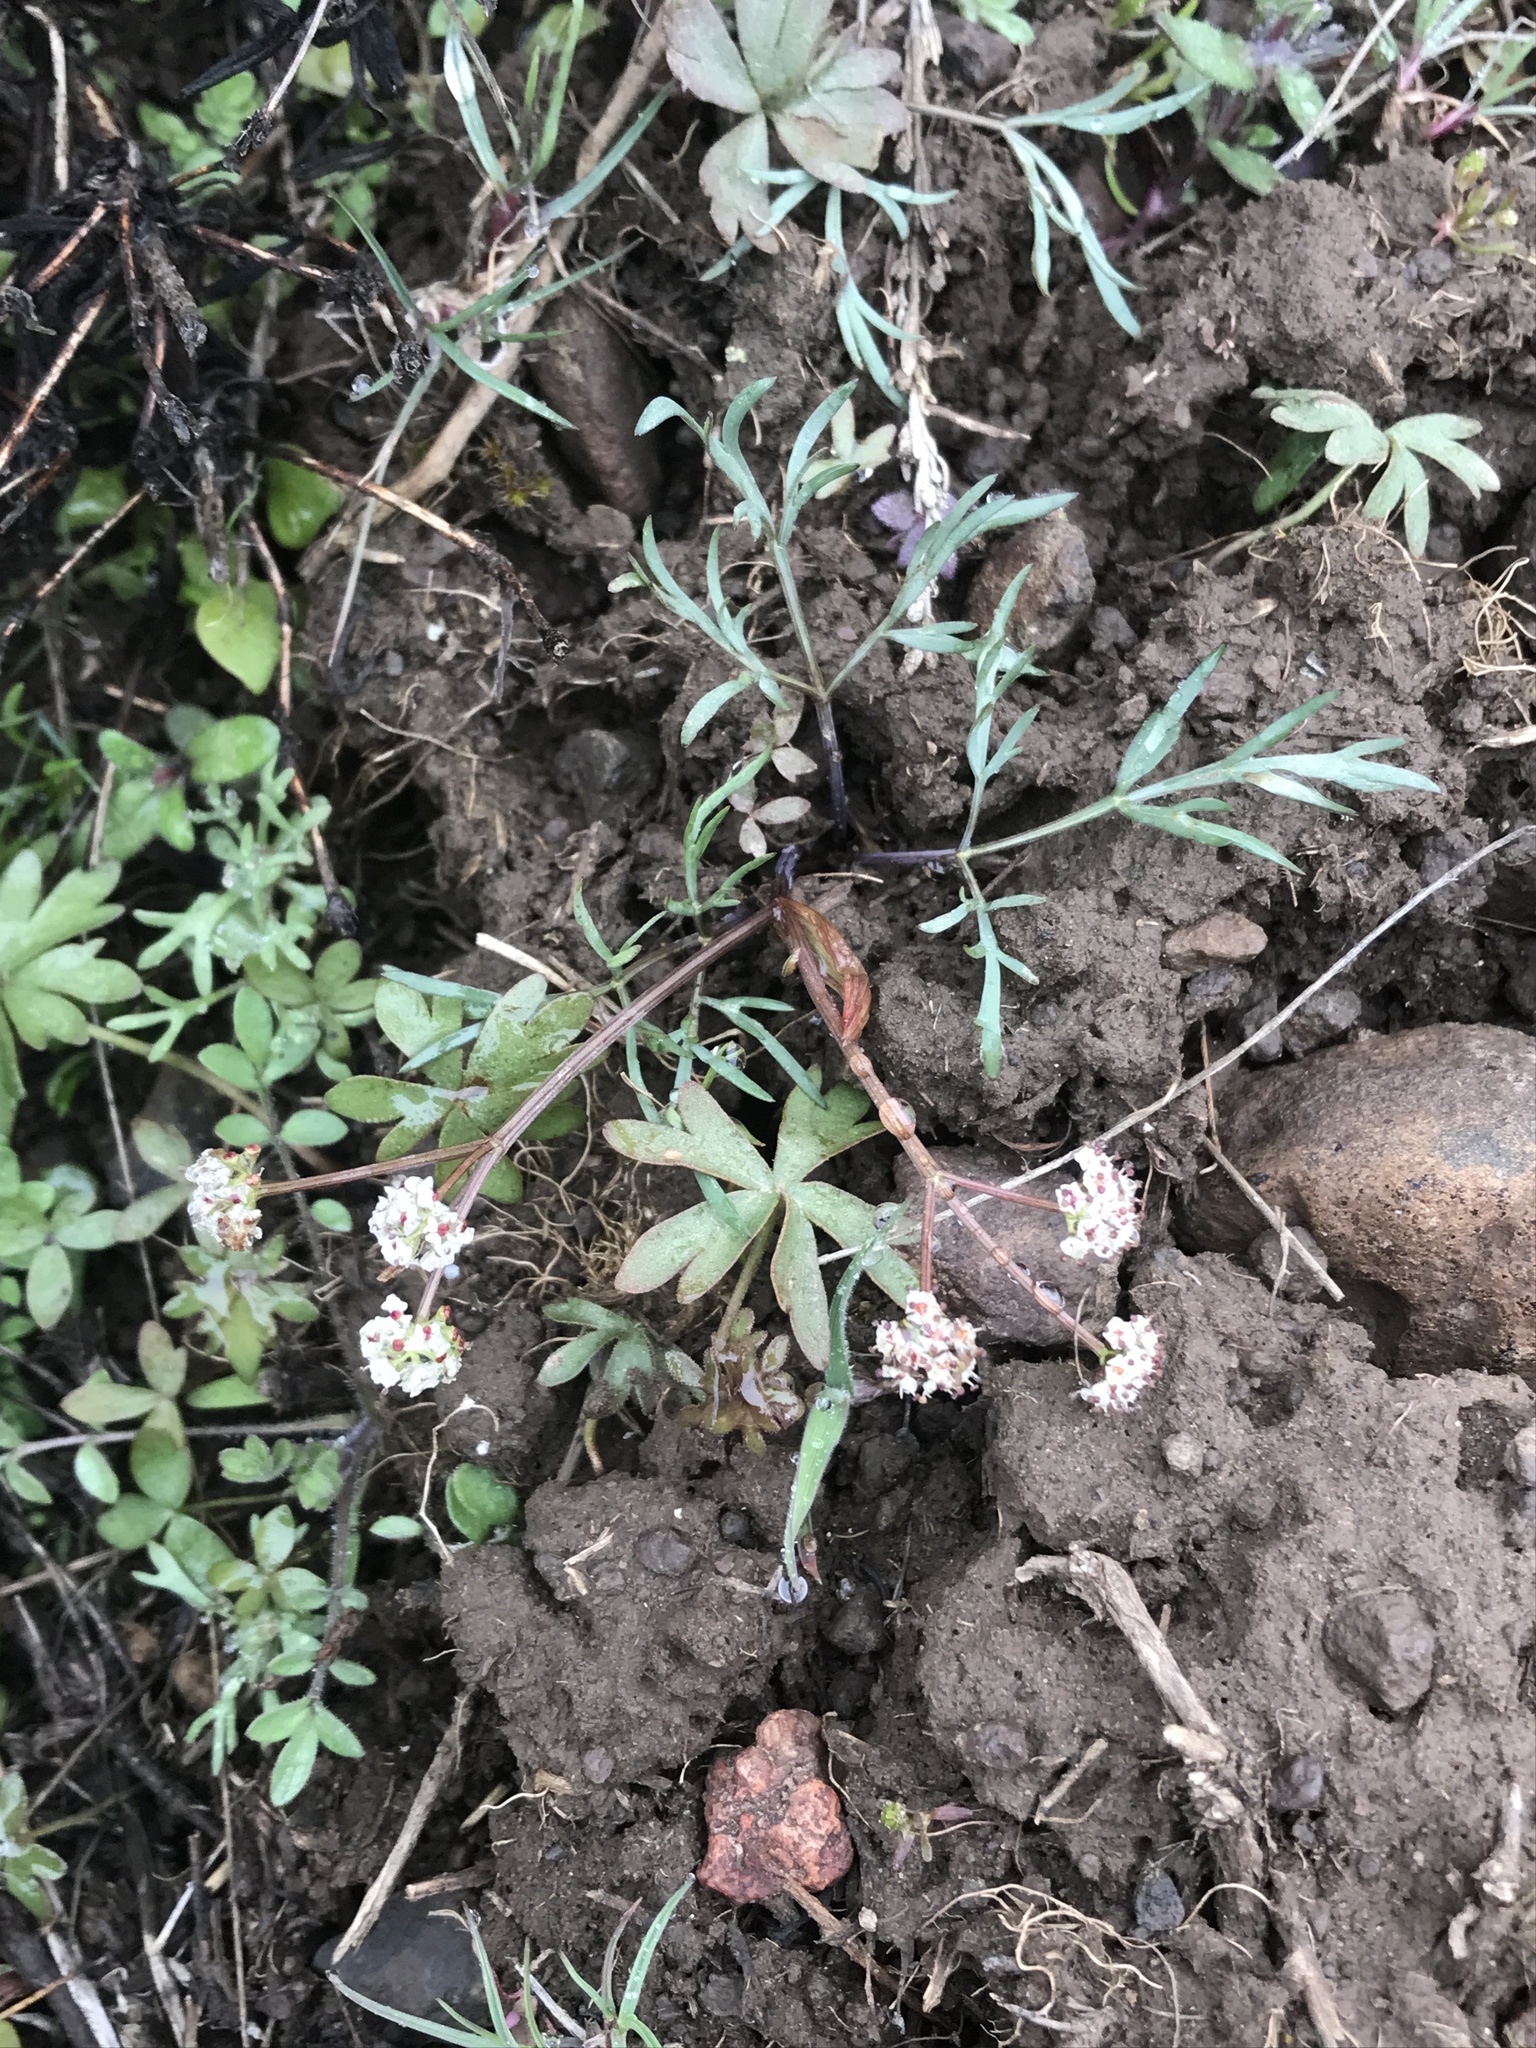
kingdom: Plantae
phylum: Tracheophyta
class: Magnoliopsida
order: Apiales
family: Apiaceae
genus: Lomatium
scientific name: Lomatium piperi
